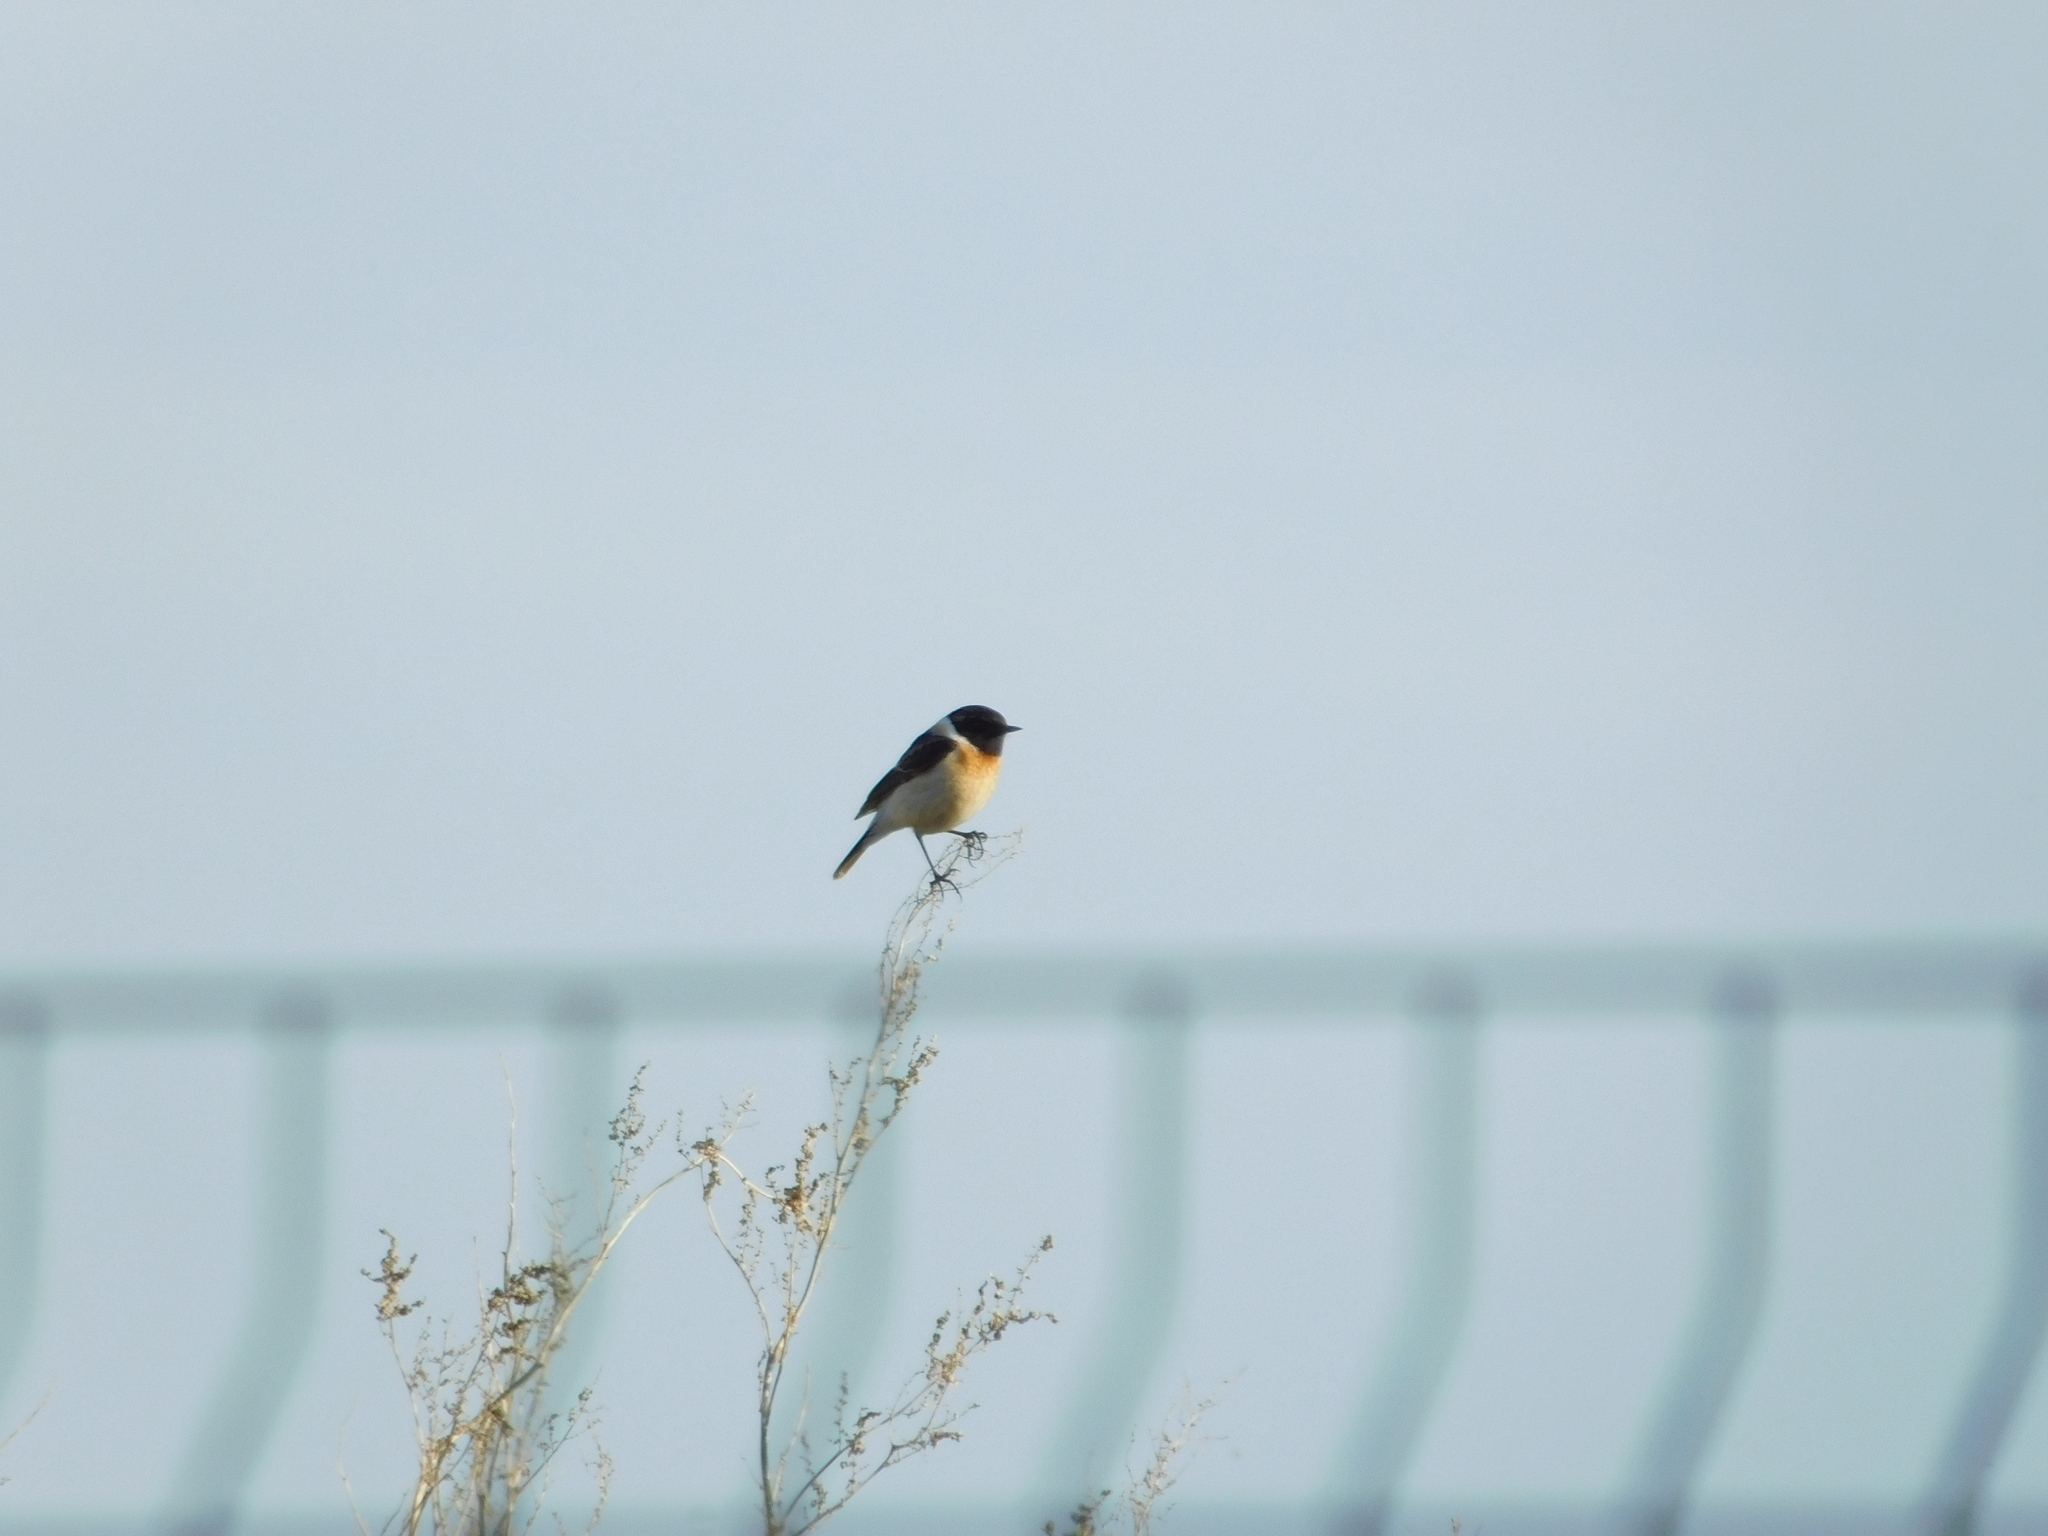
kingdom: Animalia
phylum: Chordata
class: Aves
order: Passeriformes
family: Muscicapidae
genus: Saxicola
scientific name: Saxicola maurus
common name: Siberian stonechat
